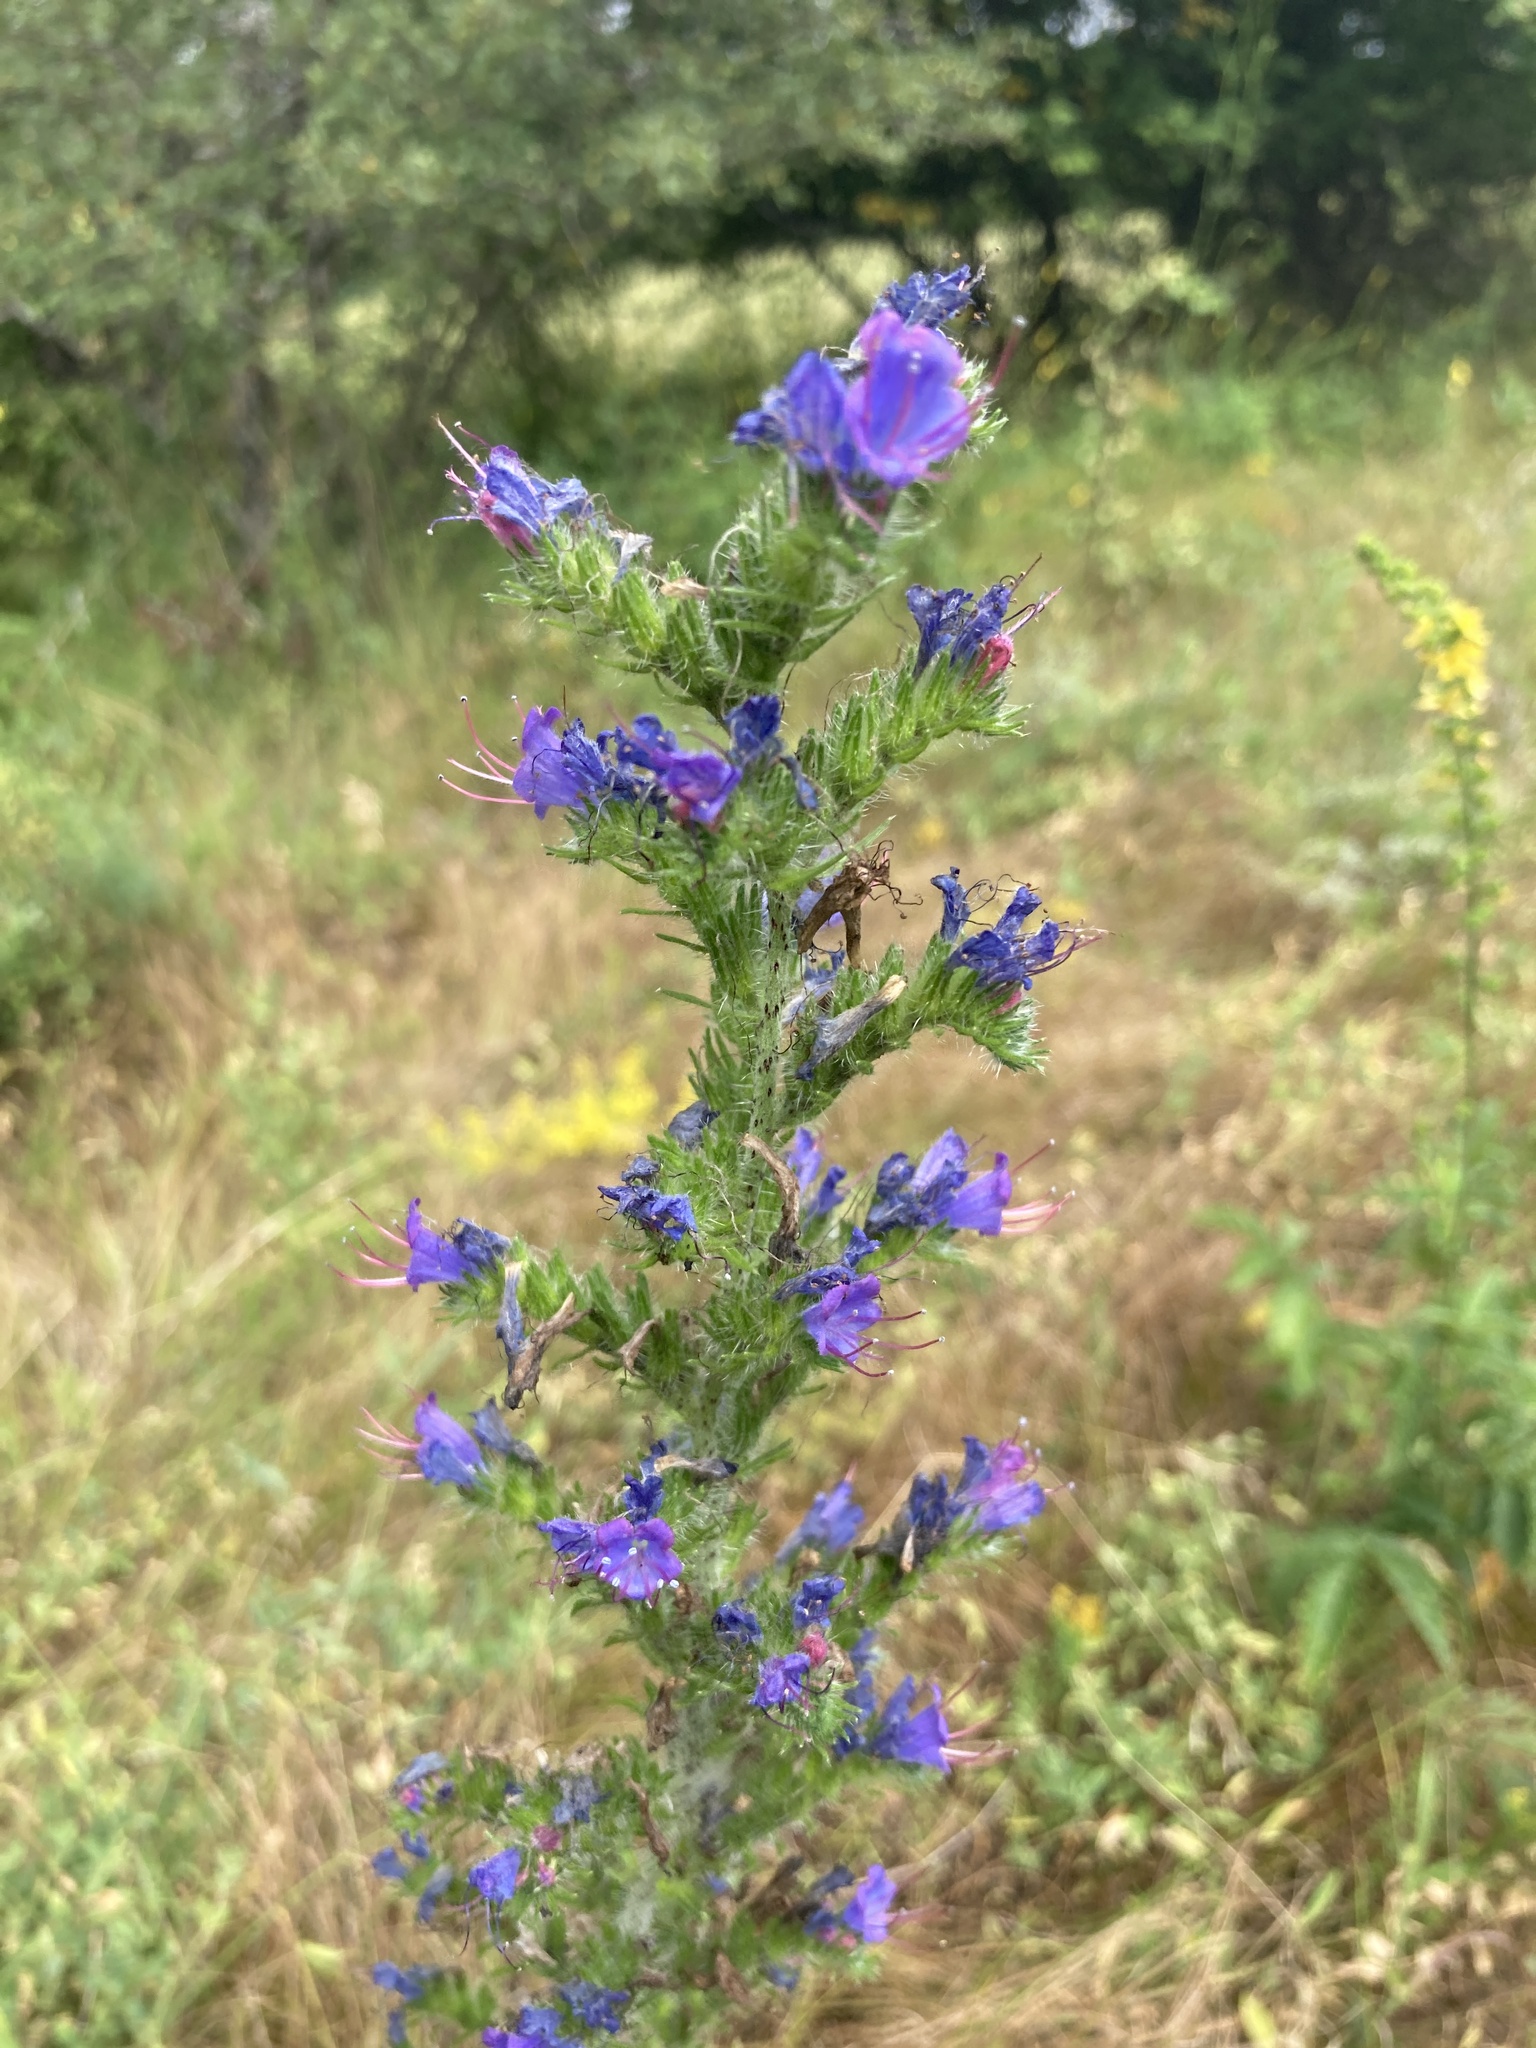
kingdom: Plantae
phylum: Tracheophyta
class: Magnoliopsida
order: Boraginales
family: Boraginaceae
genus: Echium
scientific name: Echium vulgare
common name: Common viper's bugloss
